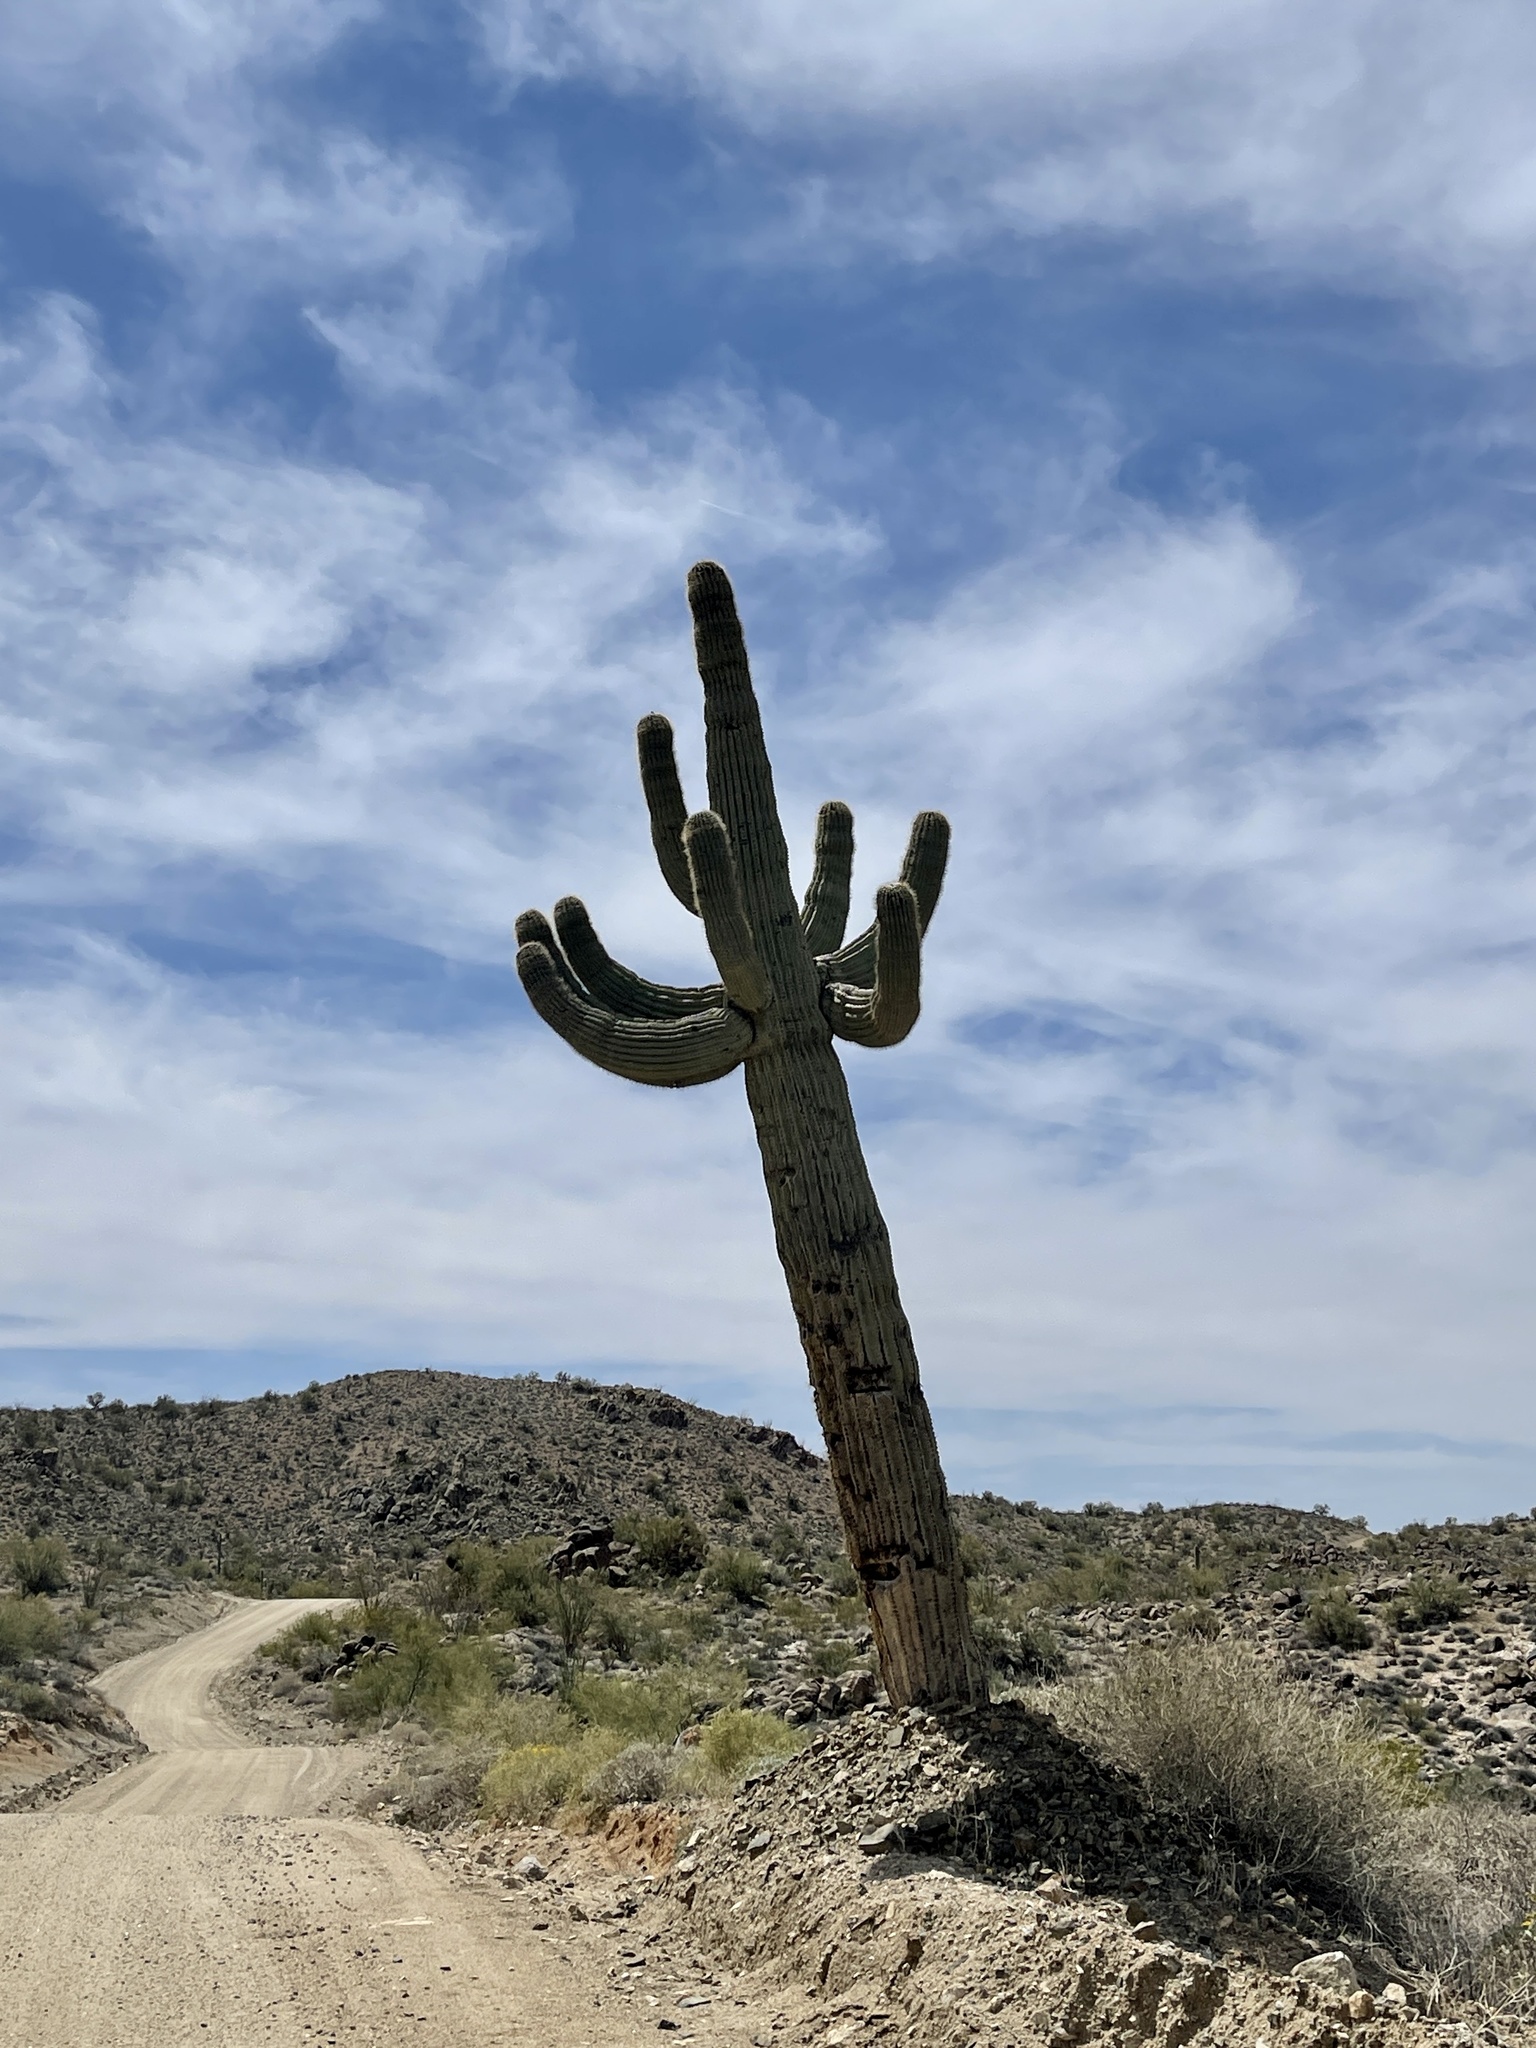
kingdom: Plantae
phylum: Tracheophyta
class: Magnoliopsida
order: Caryophyllales
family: Cactaceae
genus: Carnegiea
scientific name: Carnegiea gigantea
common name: Saguaro
